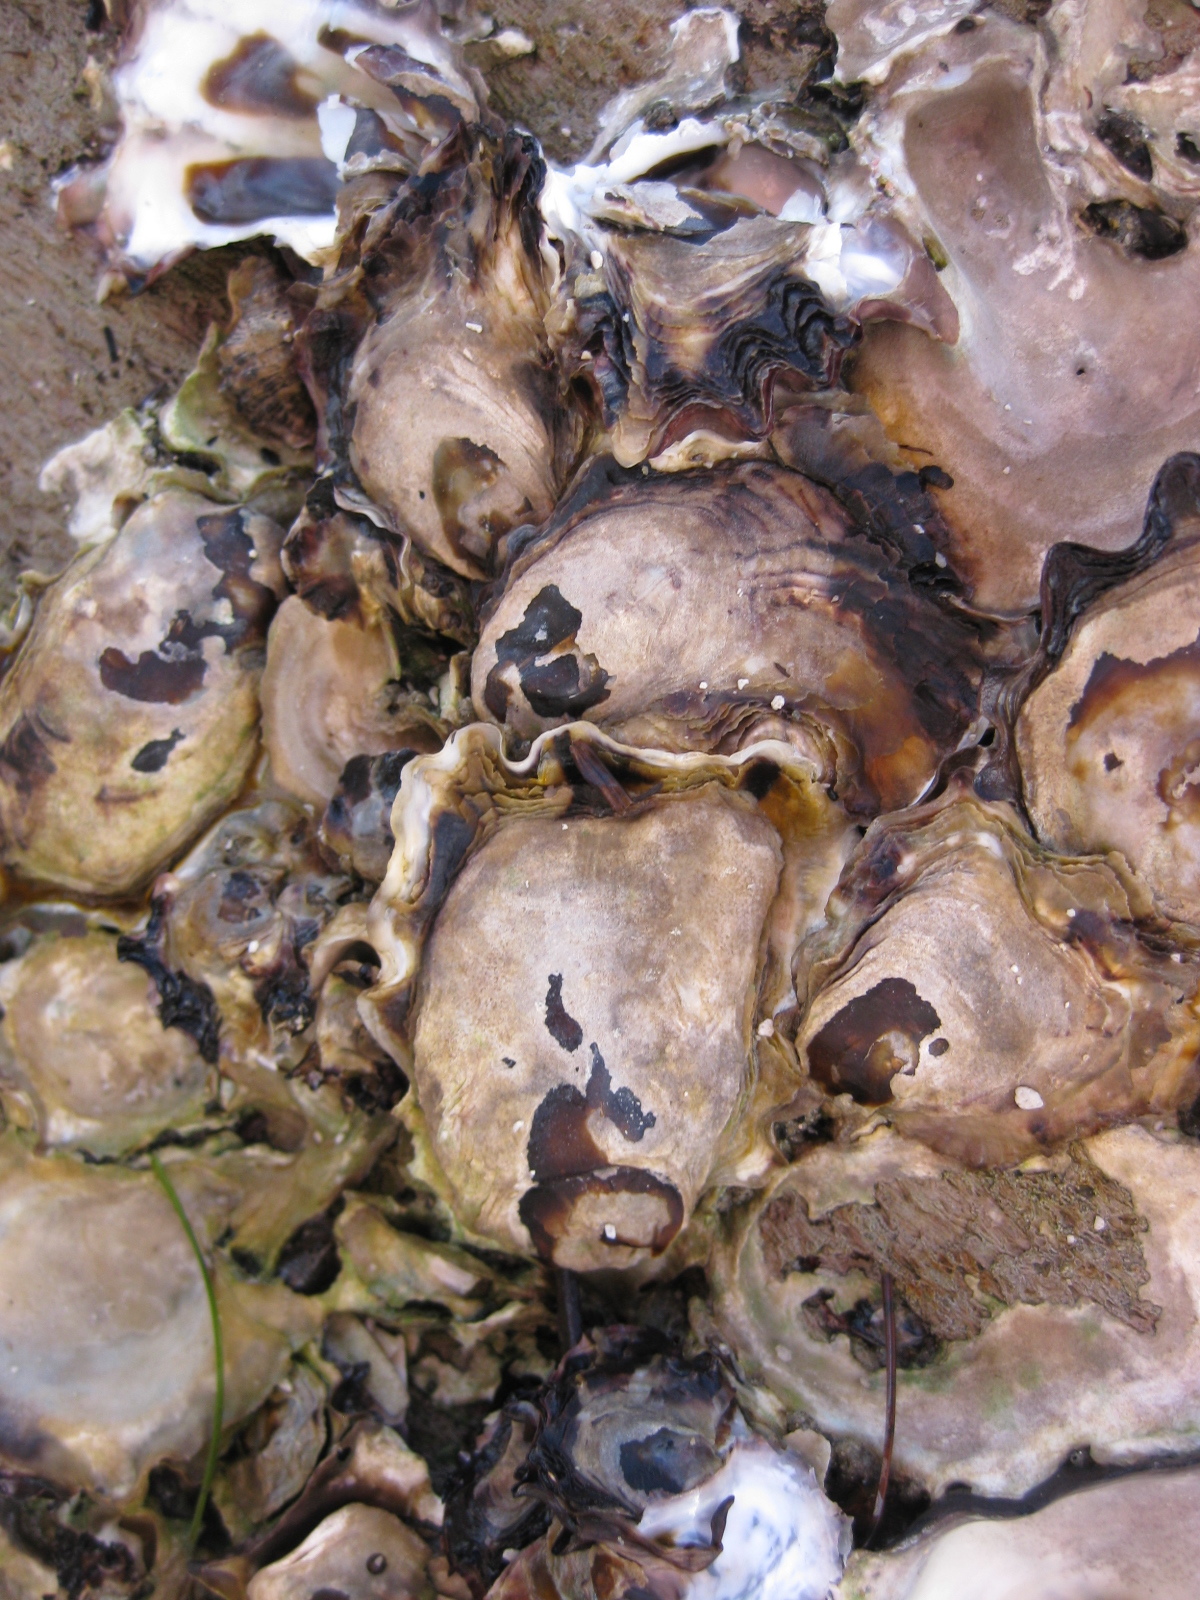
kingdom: Animalia
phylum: Mollusca
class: Bivalvia
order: Ostreida
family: Ostreidae
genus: Saccostrea
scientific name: Saccostrea glomerata
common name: Sydney cupped oyster
